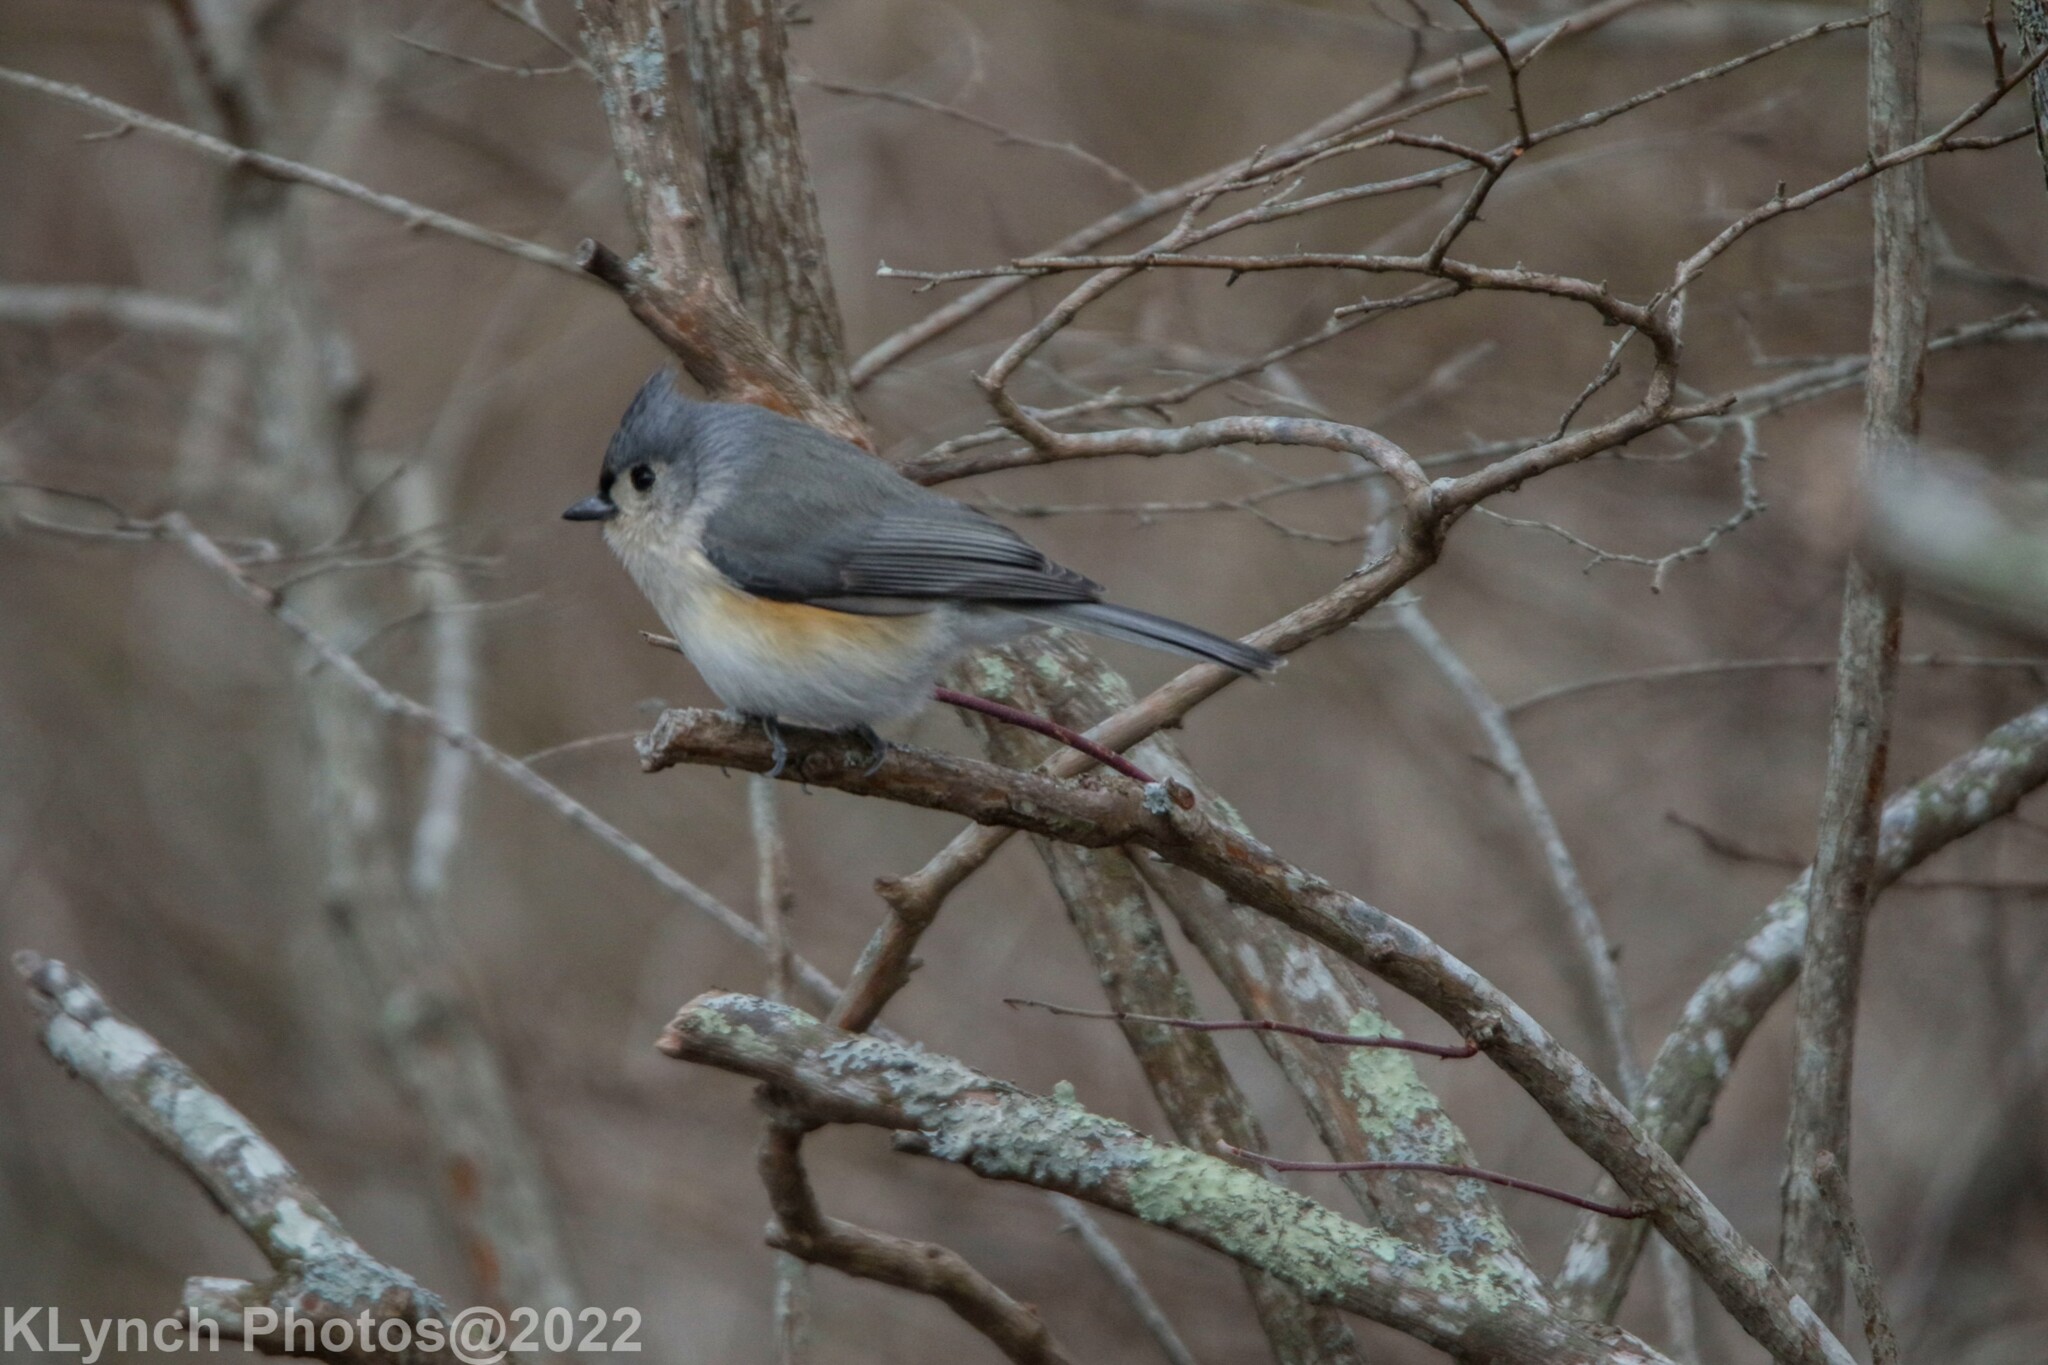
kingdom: Animalia
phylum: Chordata
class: Aves
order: Passeriformes
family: Paridae
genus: Baeolophus
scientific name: Baeolophus bicolor
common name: Tufted titmouse
